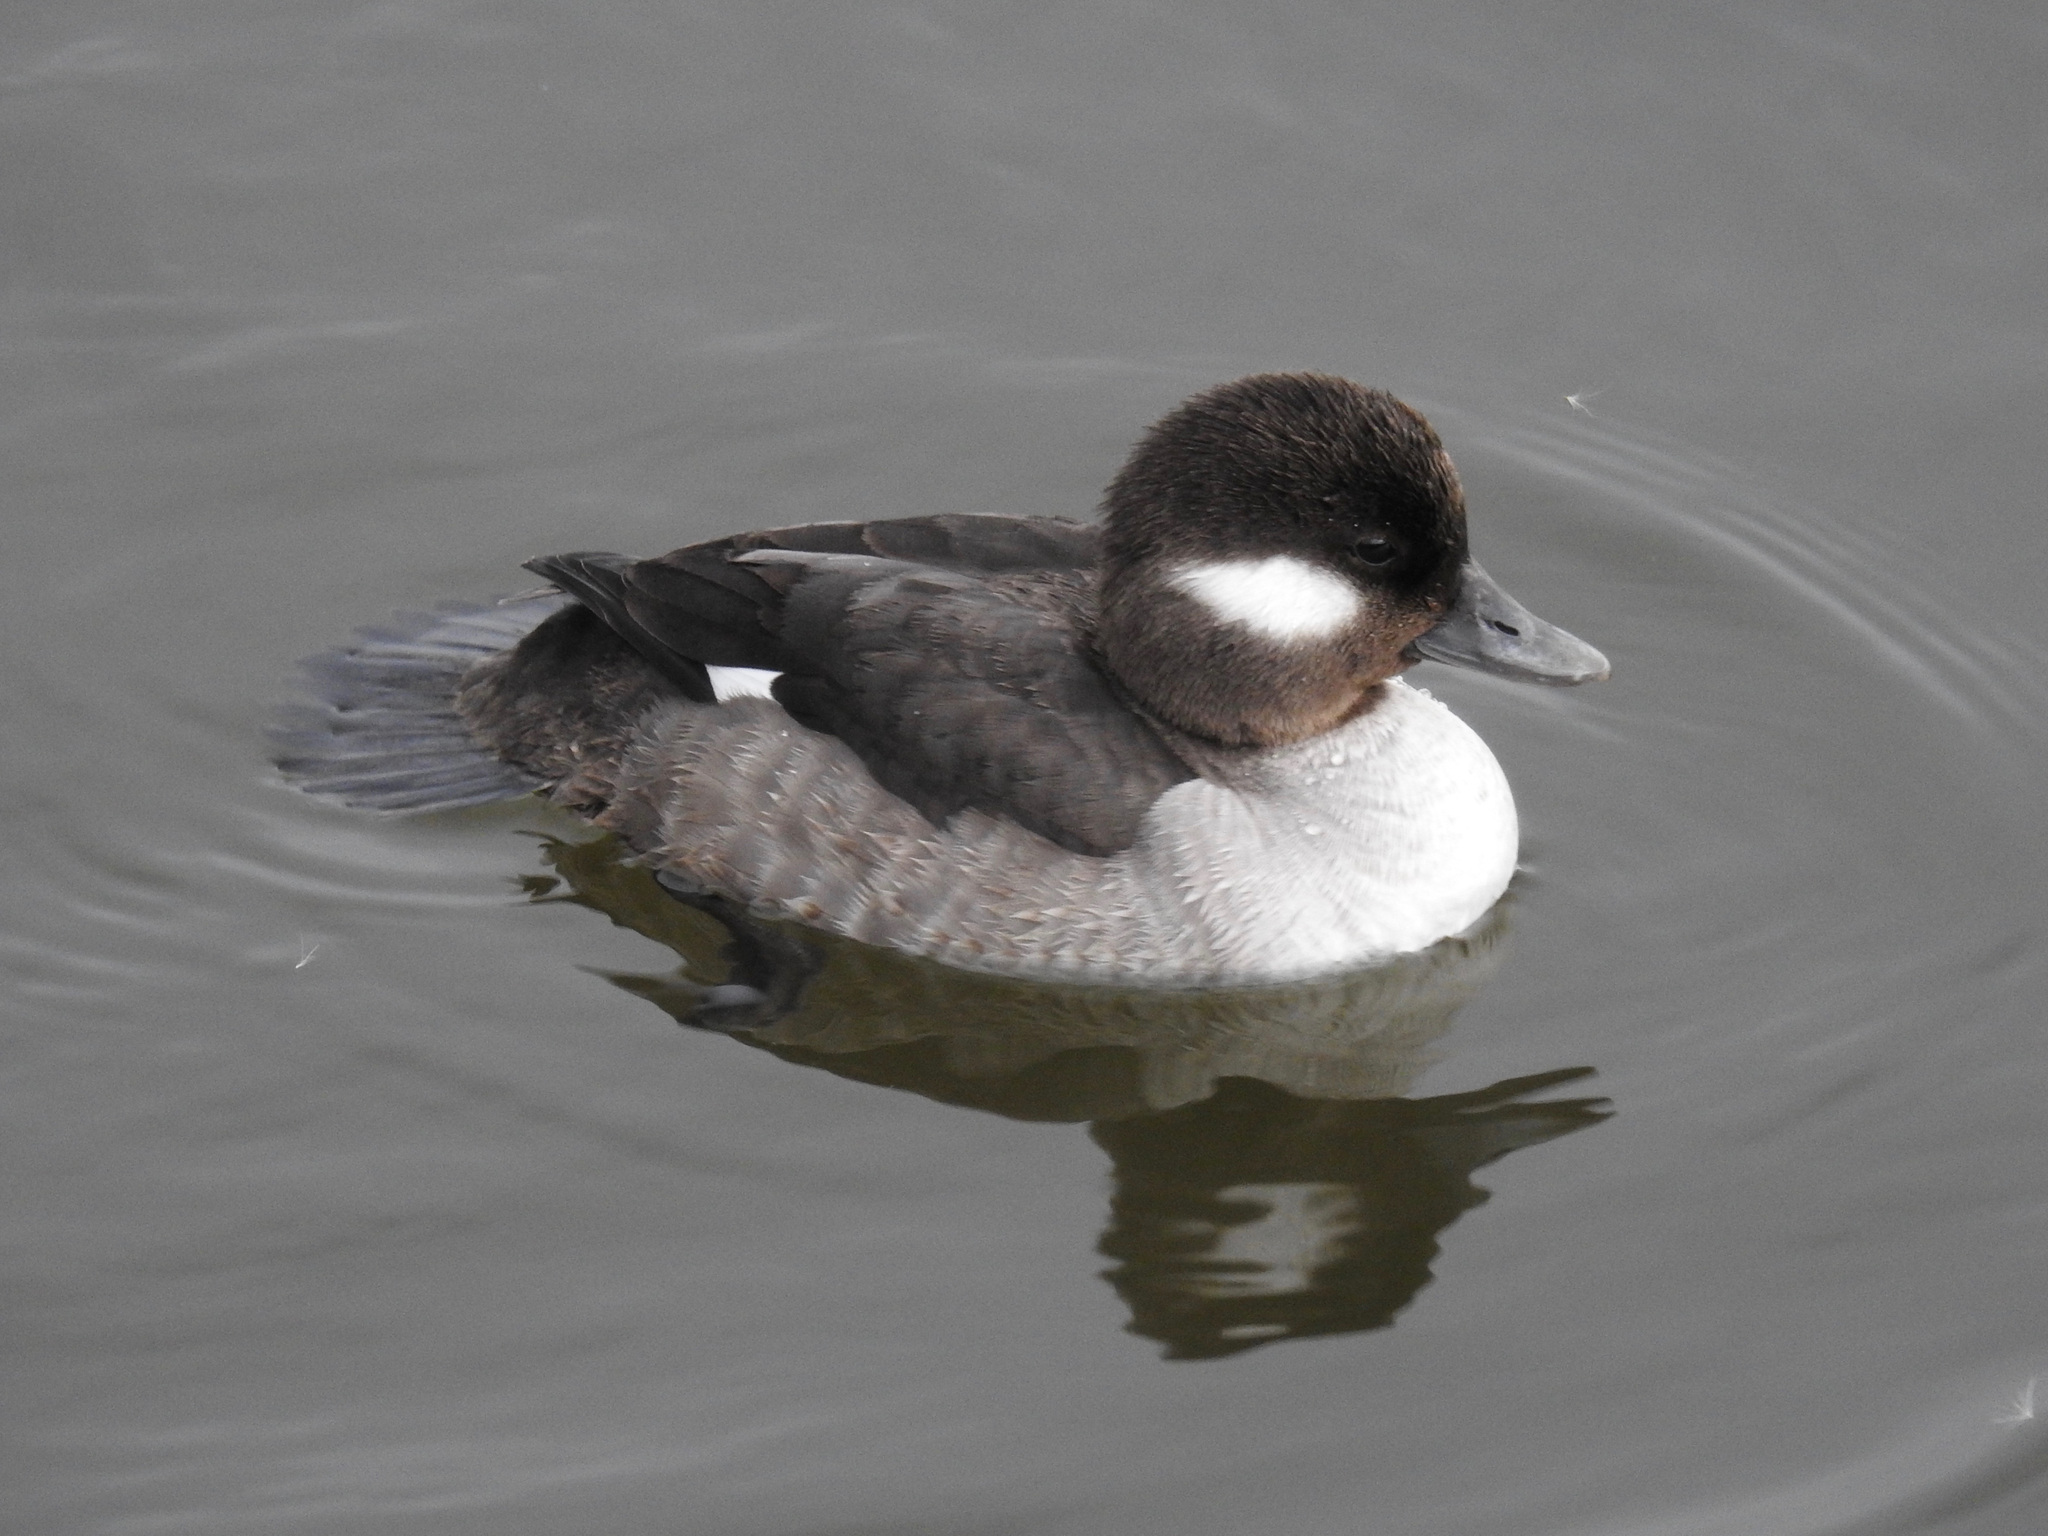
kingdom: Animalia
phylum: Chordata
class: Aves
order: Anseriformes
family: Anatidae
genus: Bucephala
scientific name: Bucephala albeola
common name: Bufflehead
